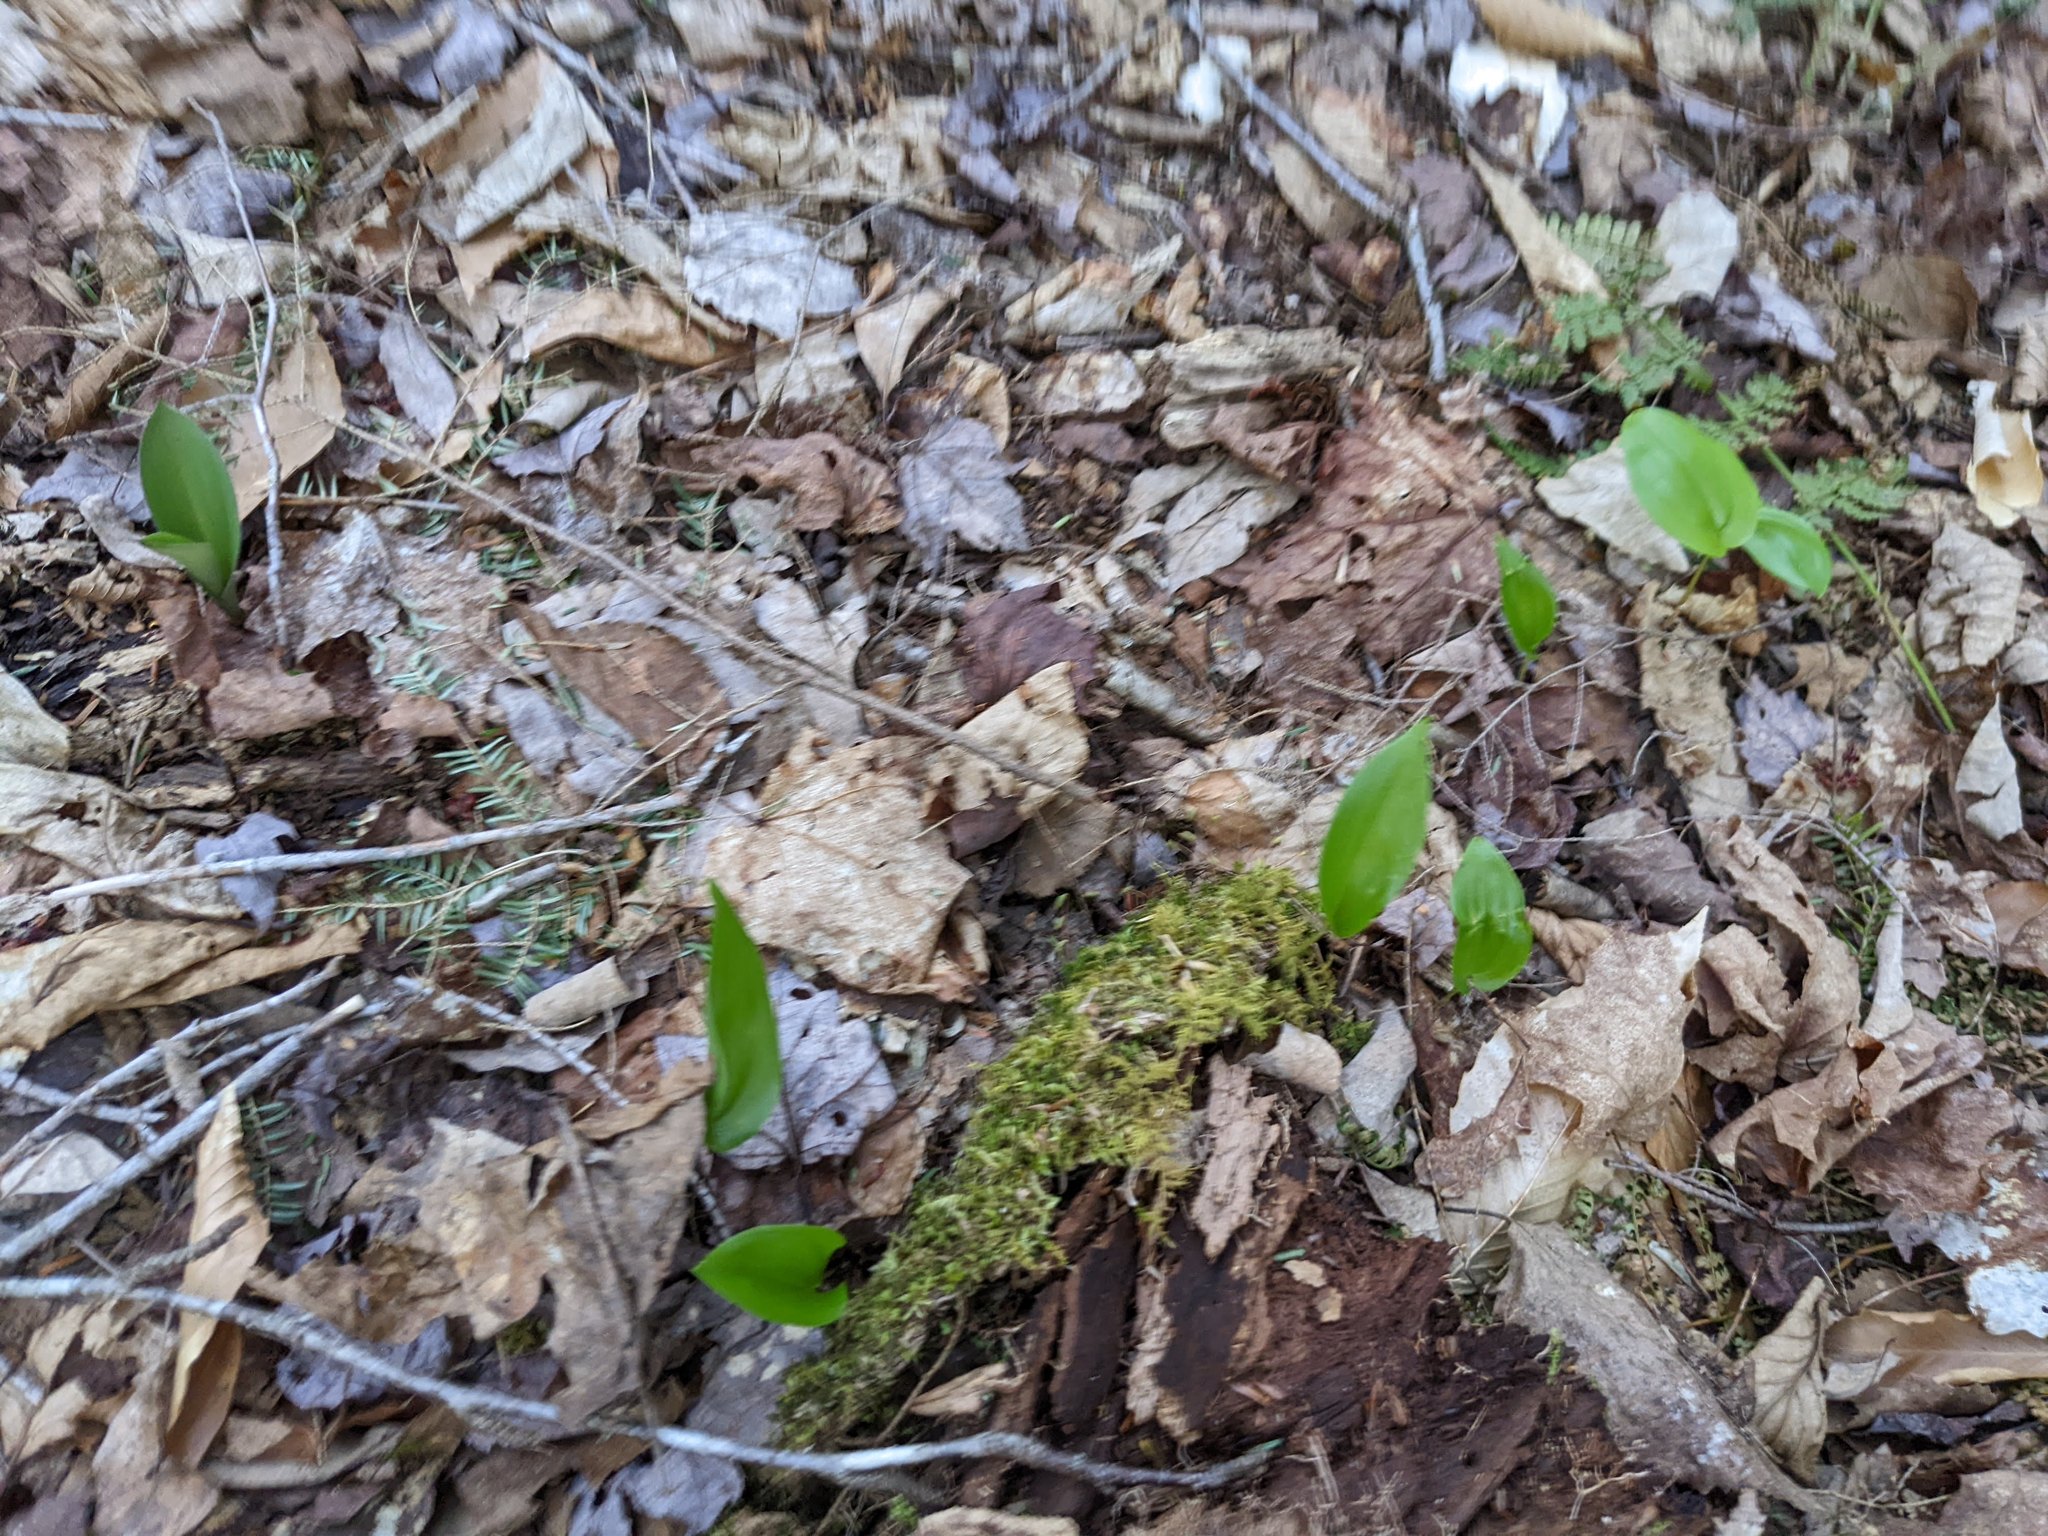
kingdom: Plantae
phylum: Tracheophyta
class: Liliopsida
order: Asparagales
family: Asparagaceae
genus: Maianthemum
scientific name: Maianthemum canadense
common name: False lily-of-the-valley
